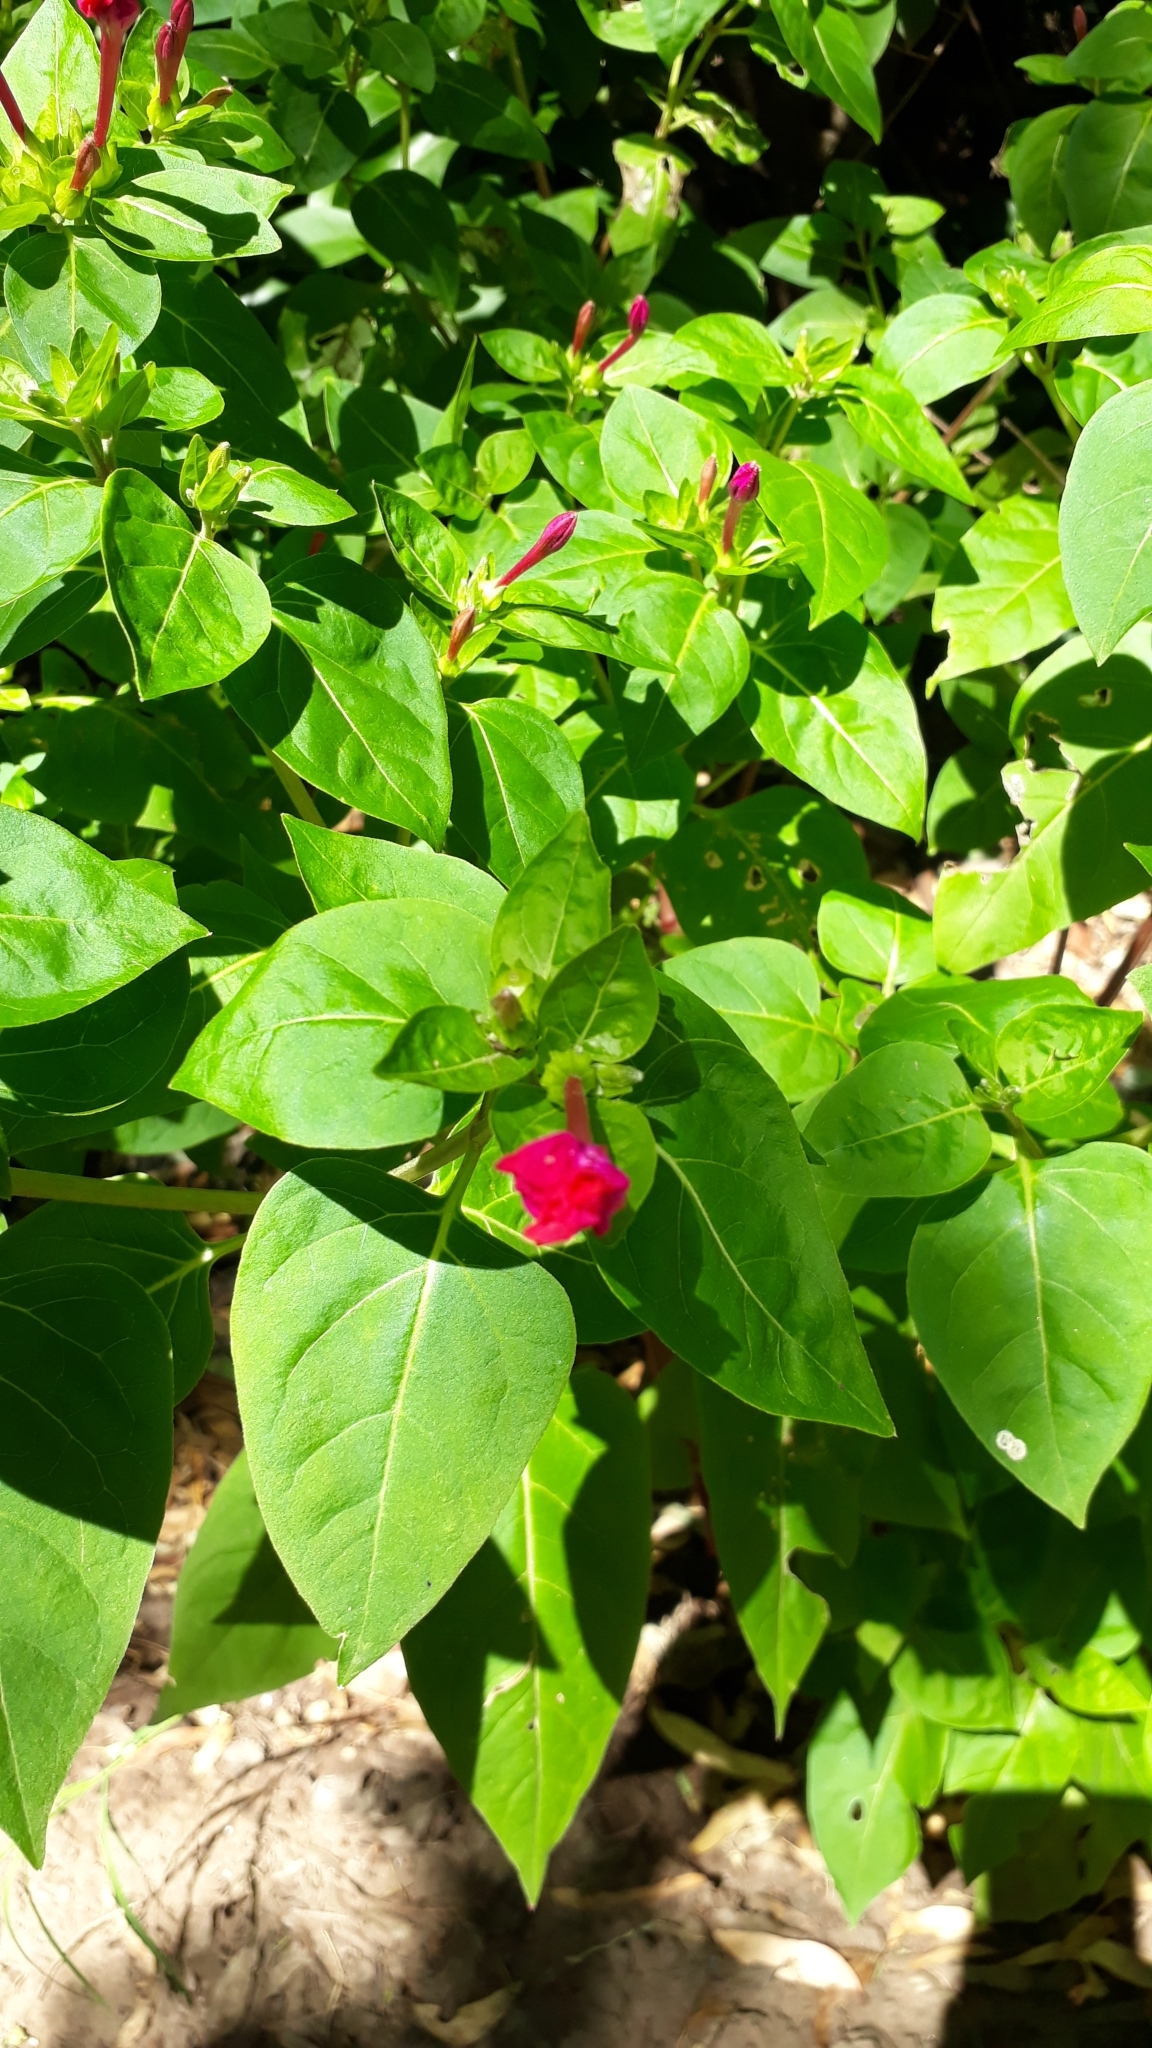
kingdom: Plantae
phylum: Tracheophyta
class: Magnoliopsida
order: Caryophyllales
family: Nyctaginaceae
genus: Mirabilis
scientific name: Mirabilis jalapa
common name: Marvel-of-peru
